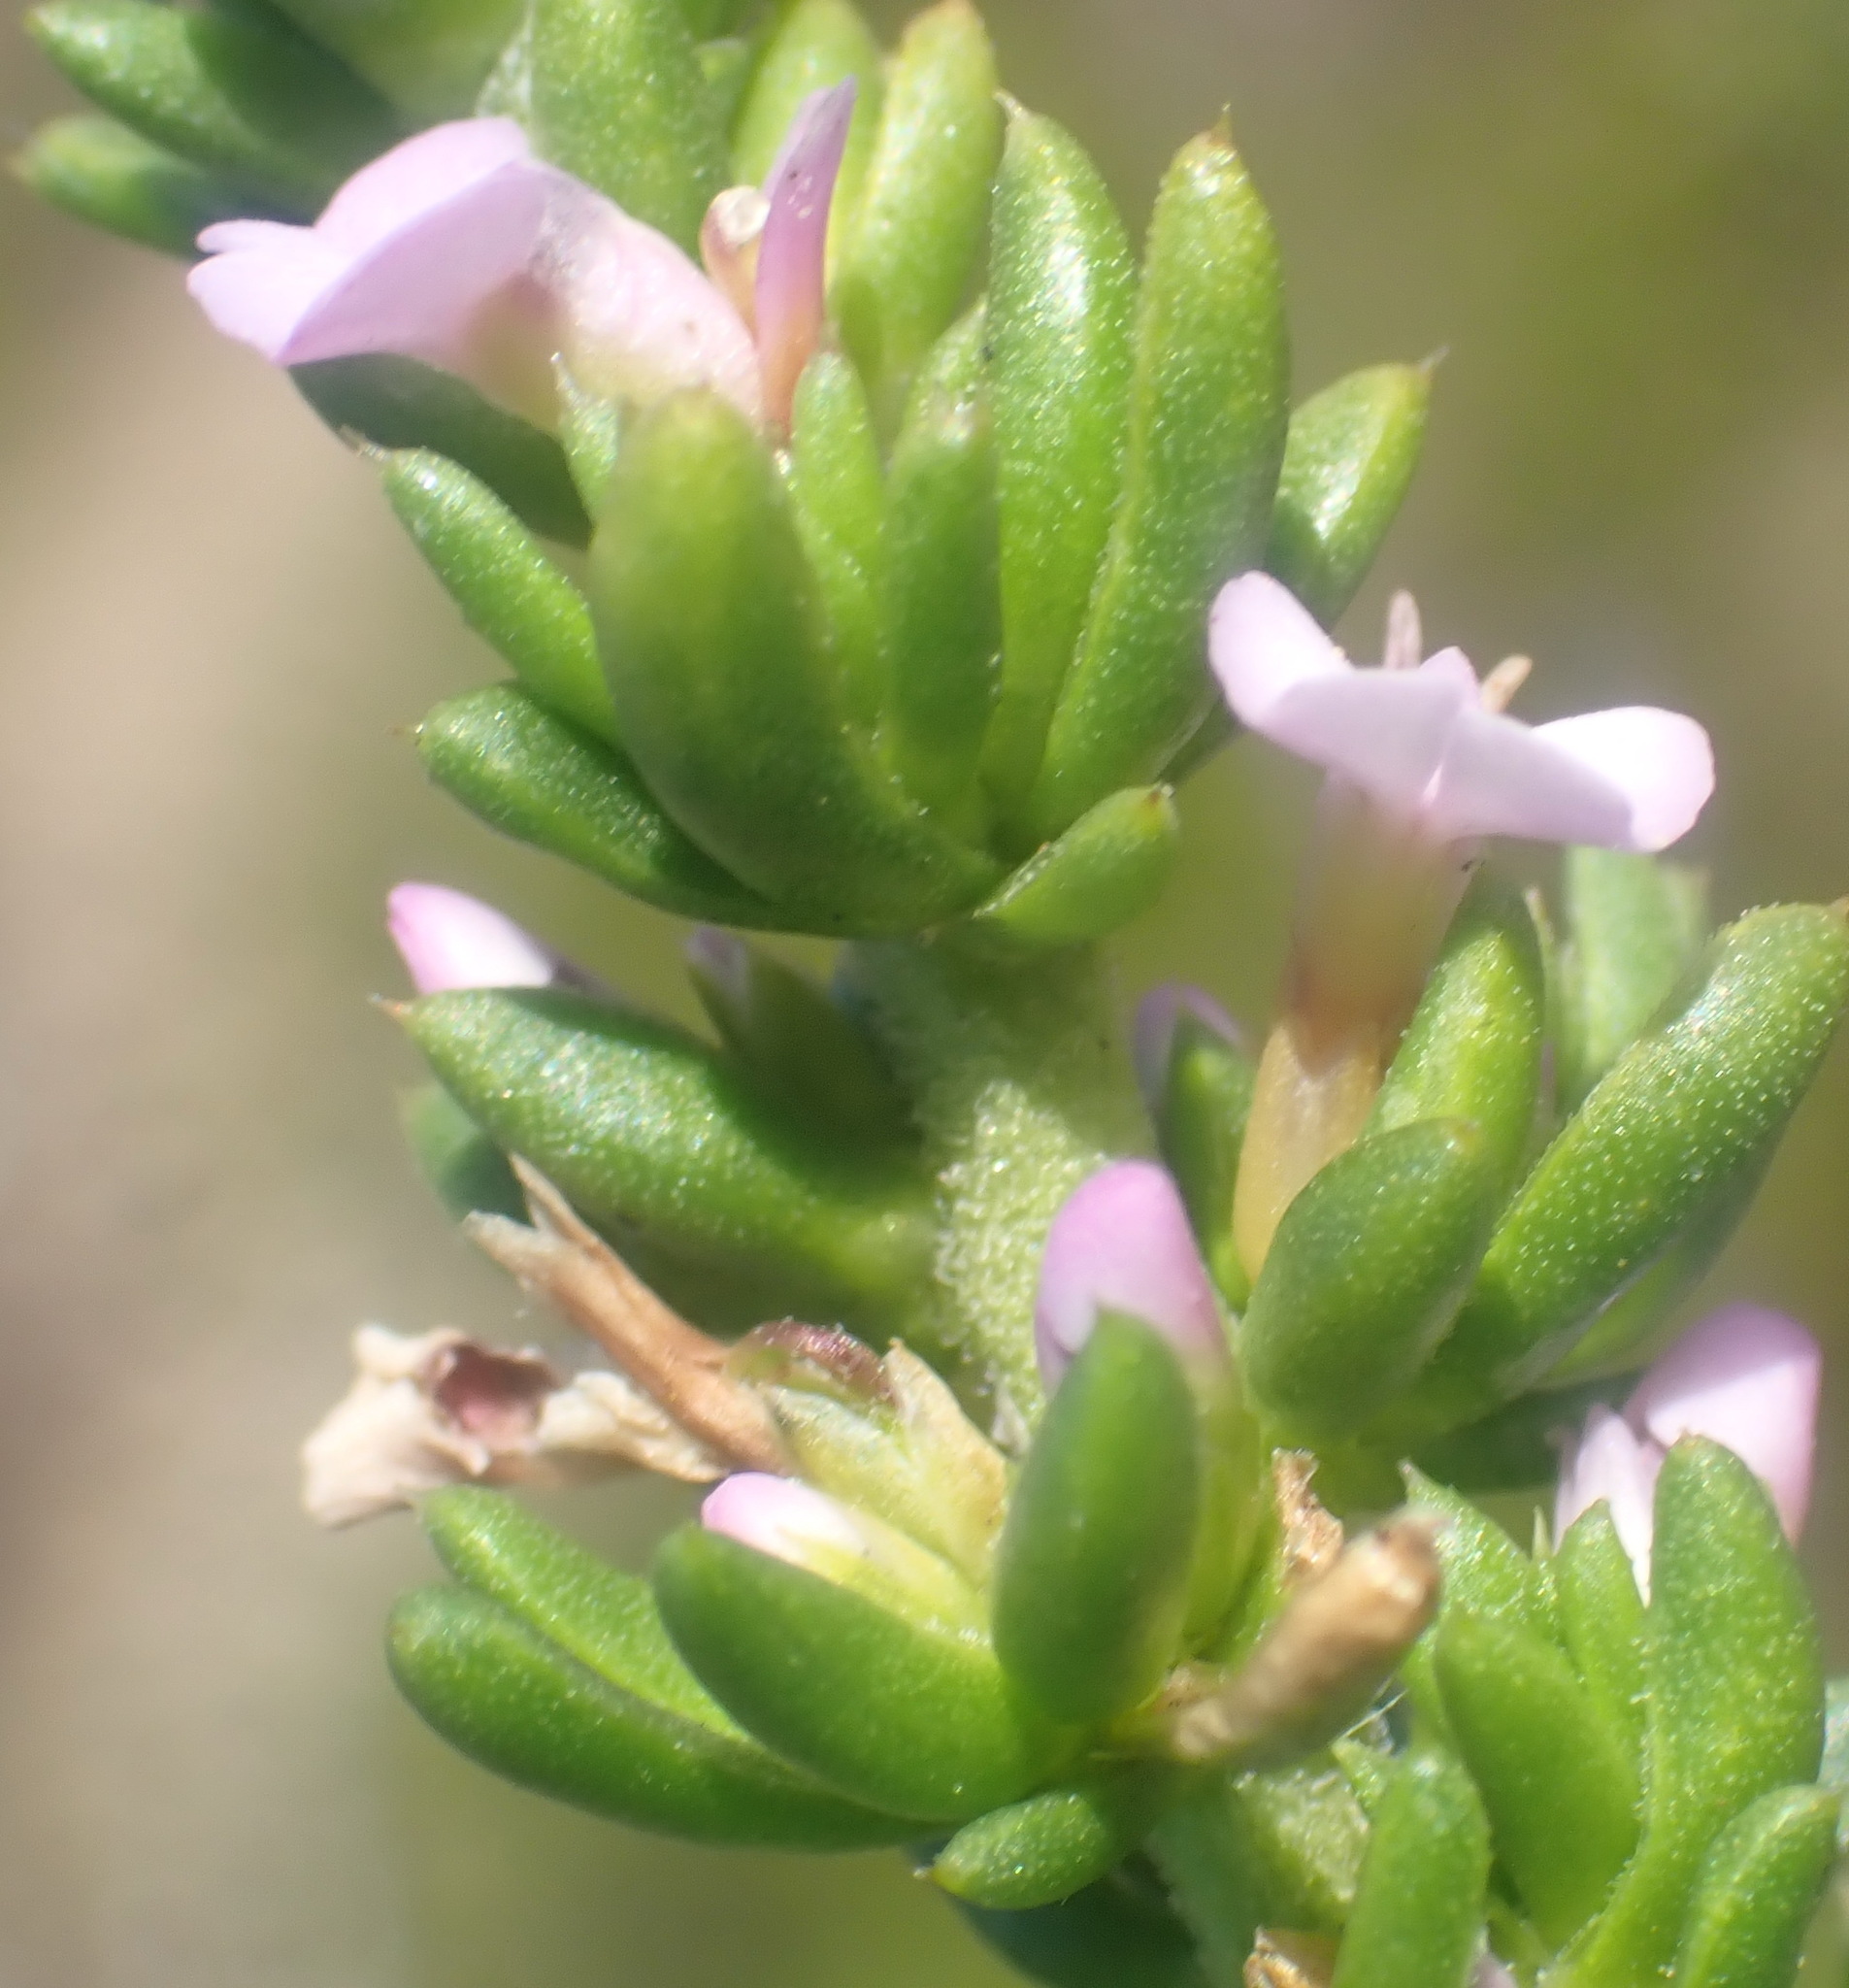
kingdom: Plantae
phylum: Tracheophyta
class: Magnoliopsida
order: Fabales
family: Polygalaceae
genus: Muraltia
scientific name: Muraltia satureioides
